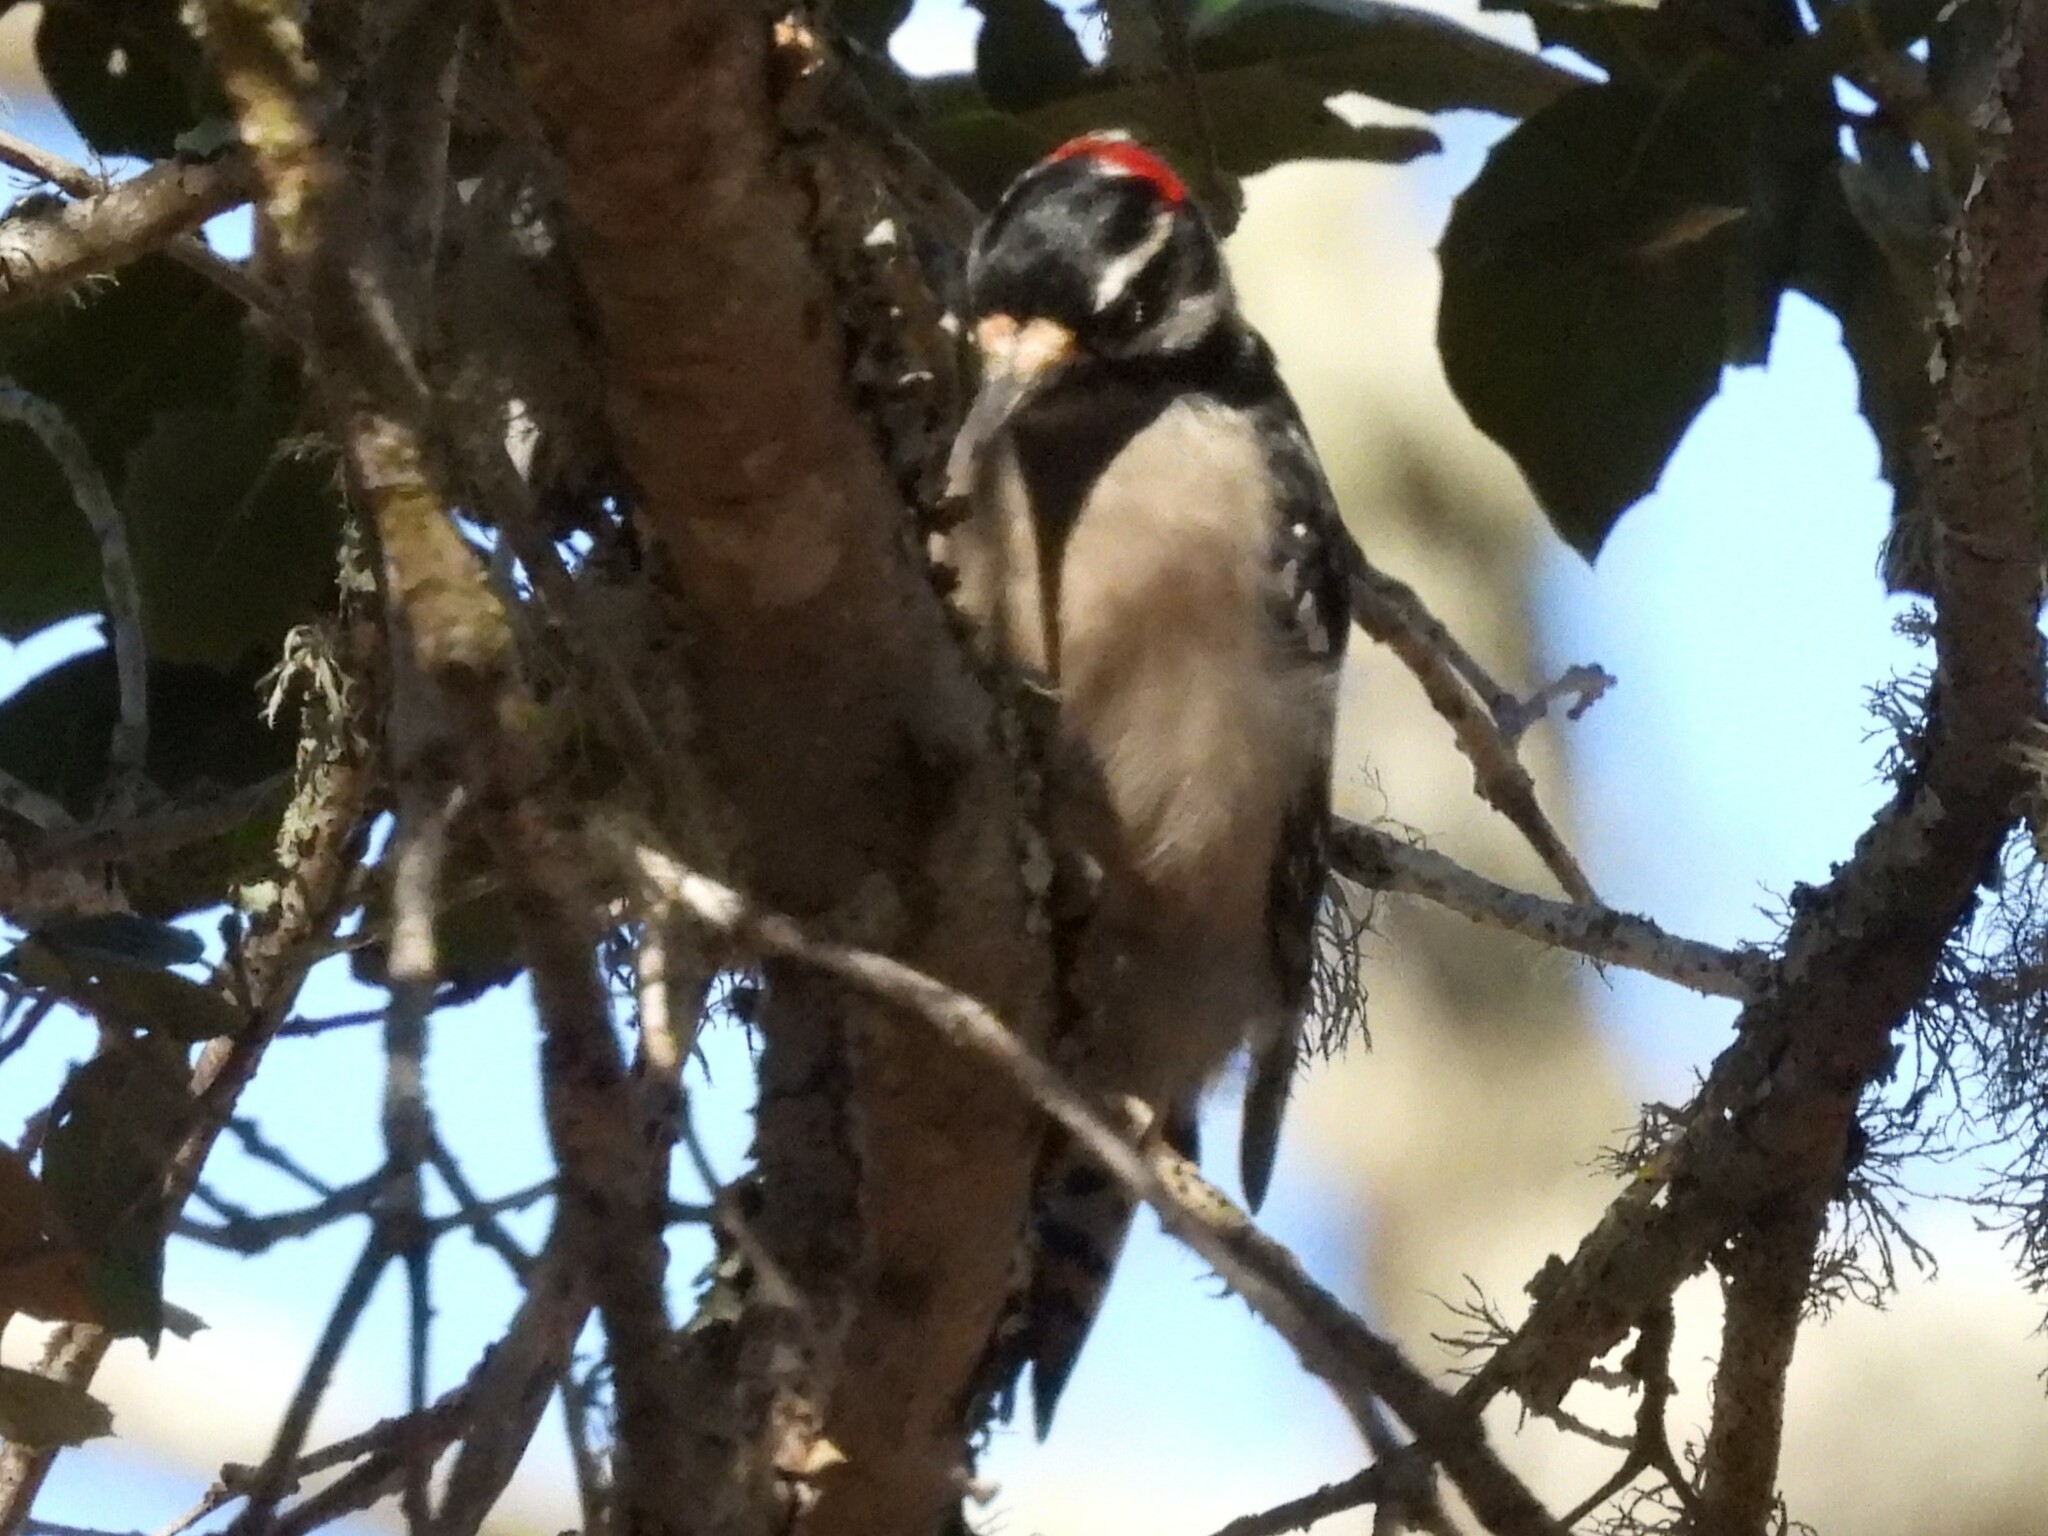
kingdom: Animalia
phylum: Chordata
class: Aves
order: Piciformes
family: Picidae
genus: Dryobates
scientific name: Dryobates pubescens
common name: Downy woodpecker
